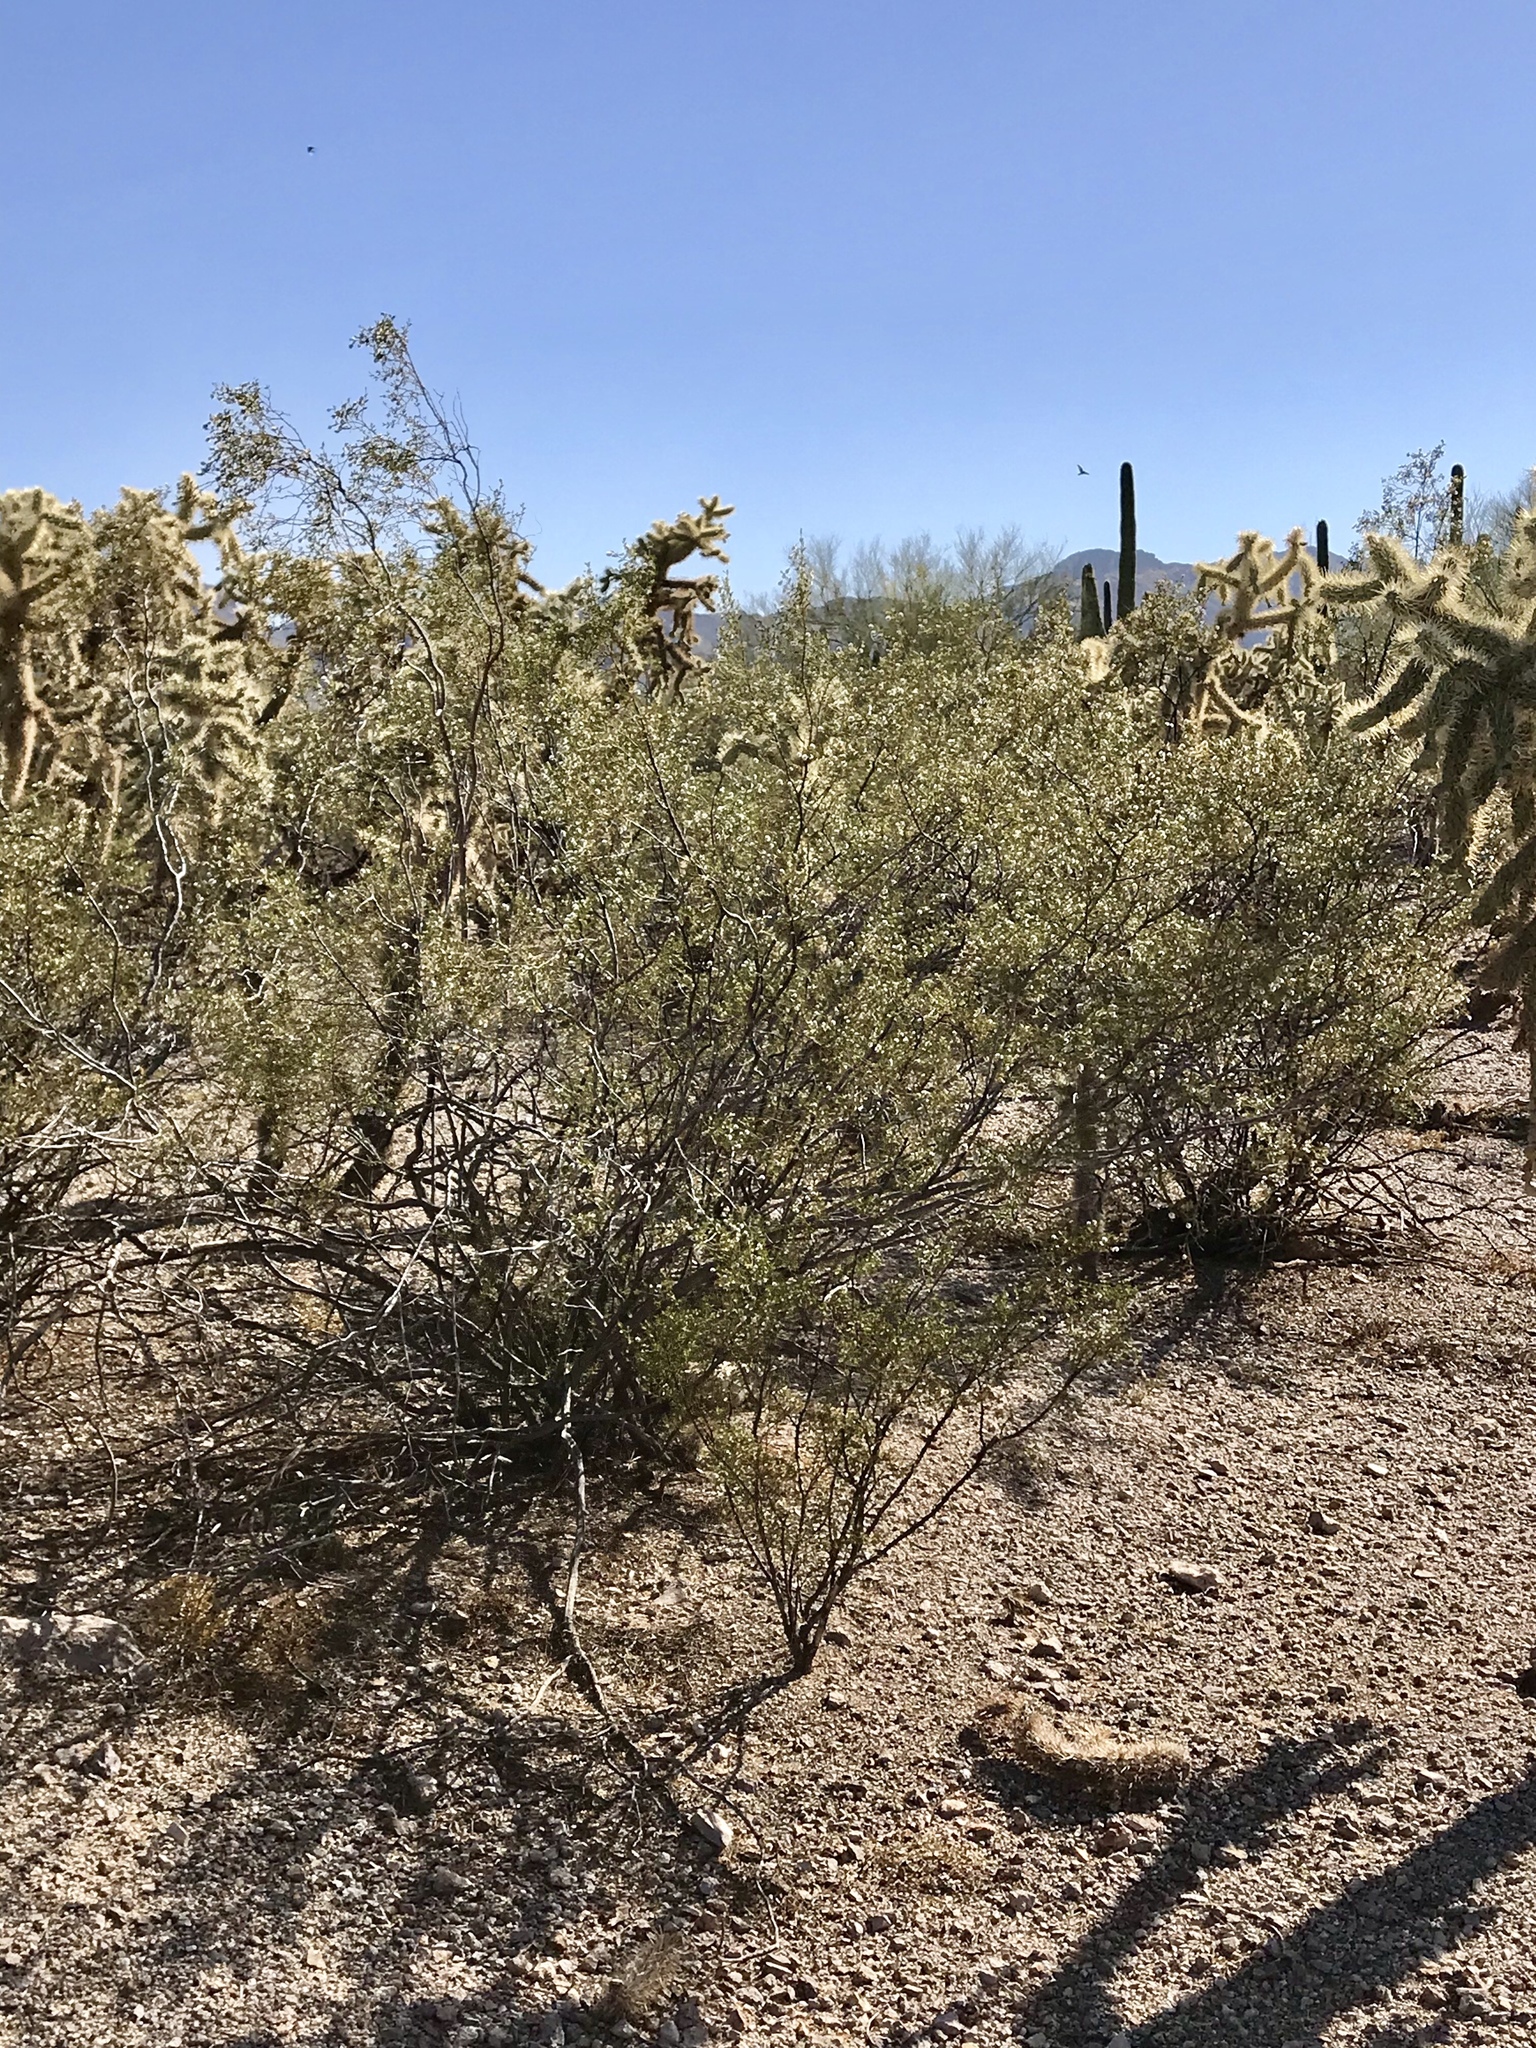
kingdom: Plantae
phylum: Tracheophyta
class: Magnoliopsida
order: Zygophyllales
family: Zygophyllaceae
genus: Larrea
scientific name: Larrea tridentata
